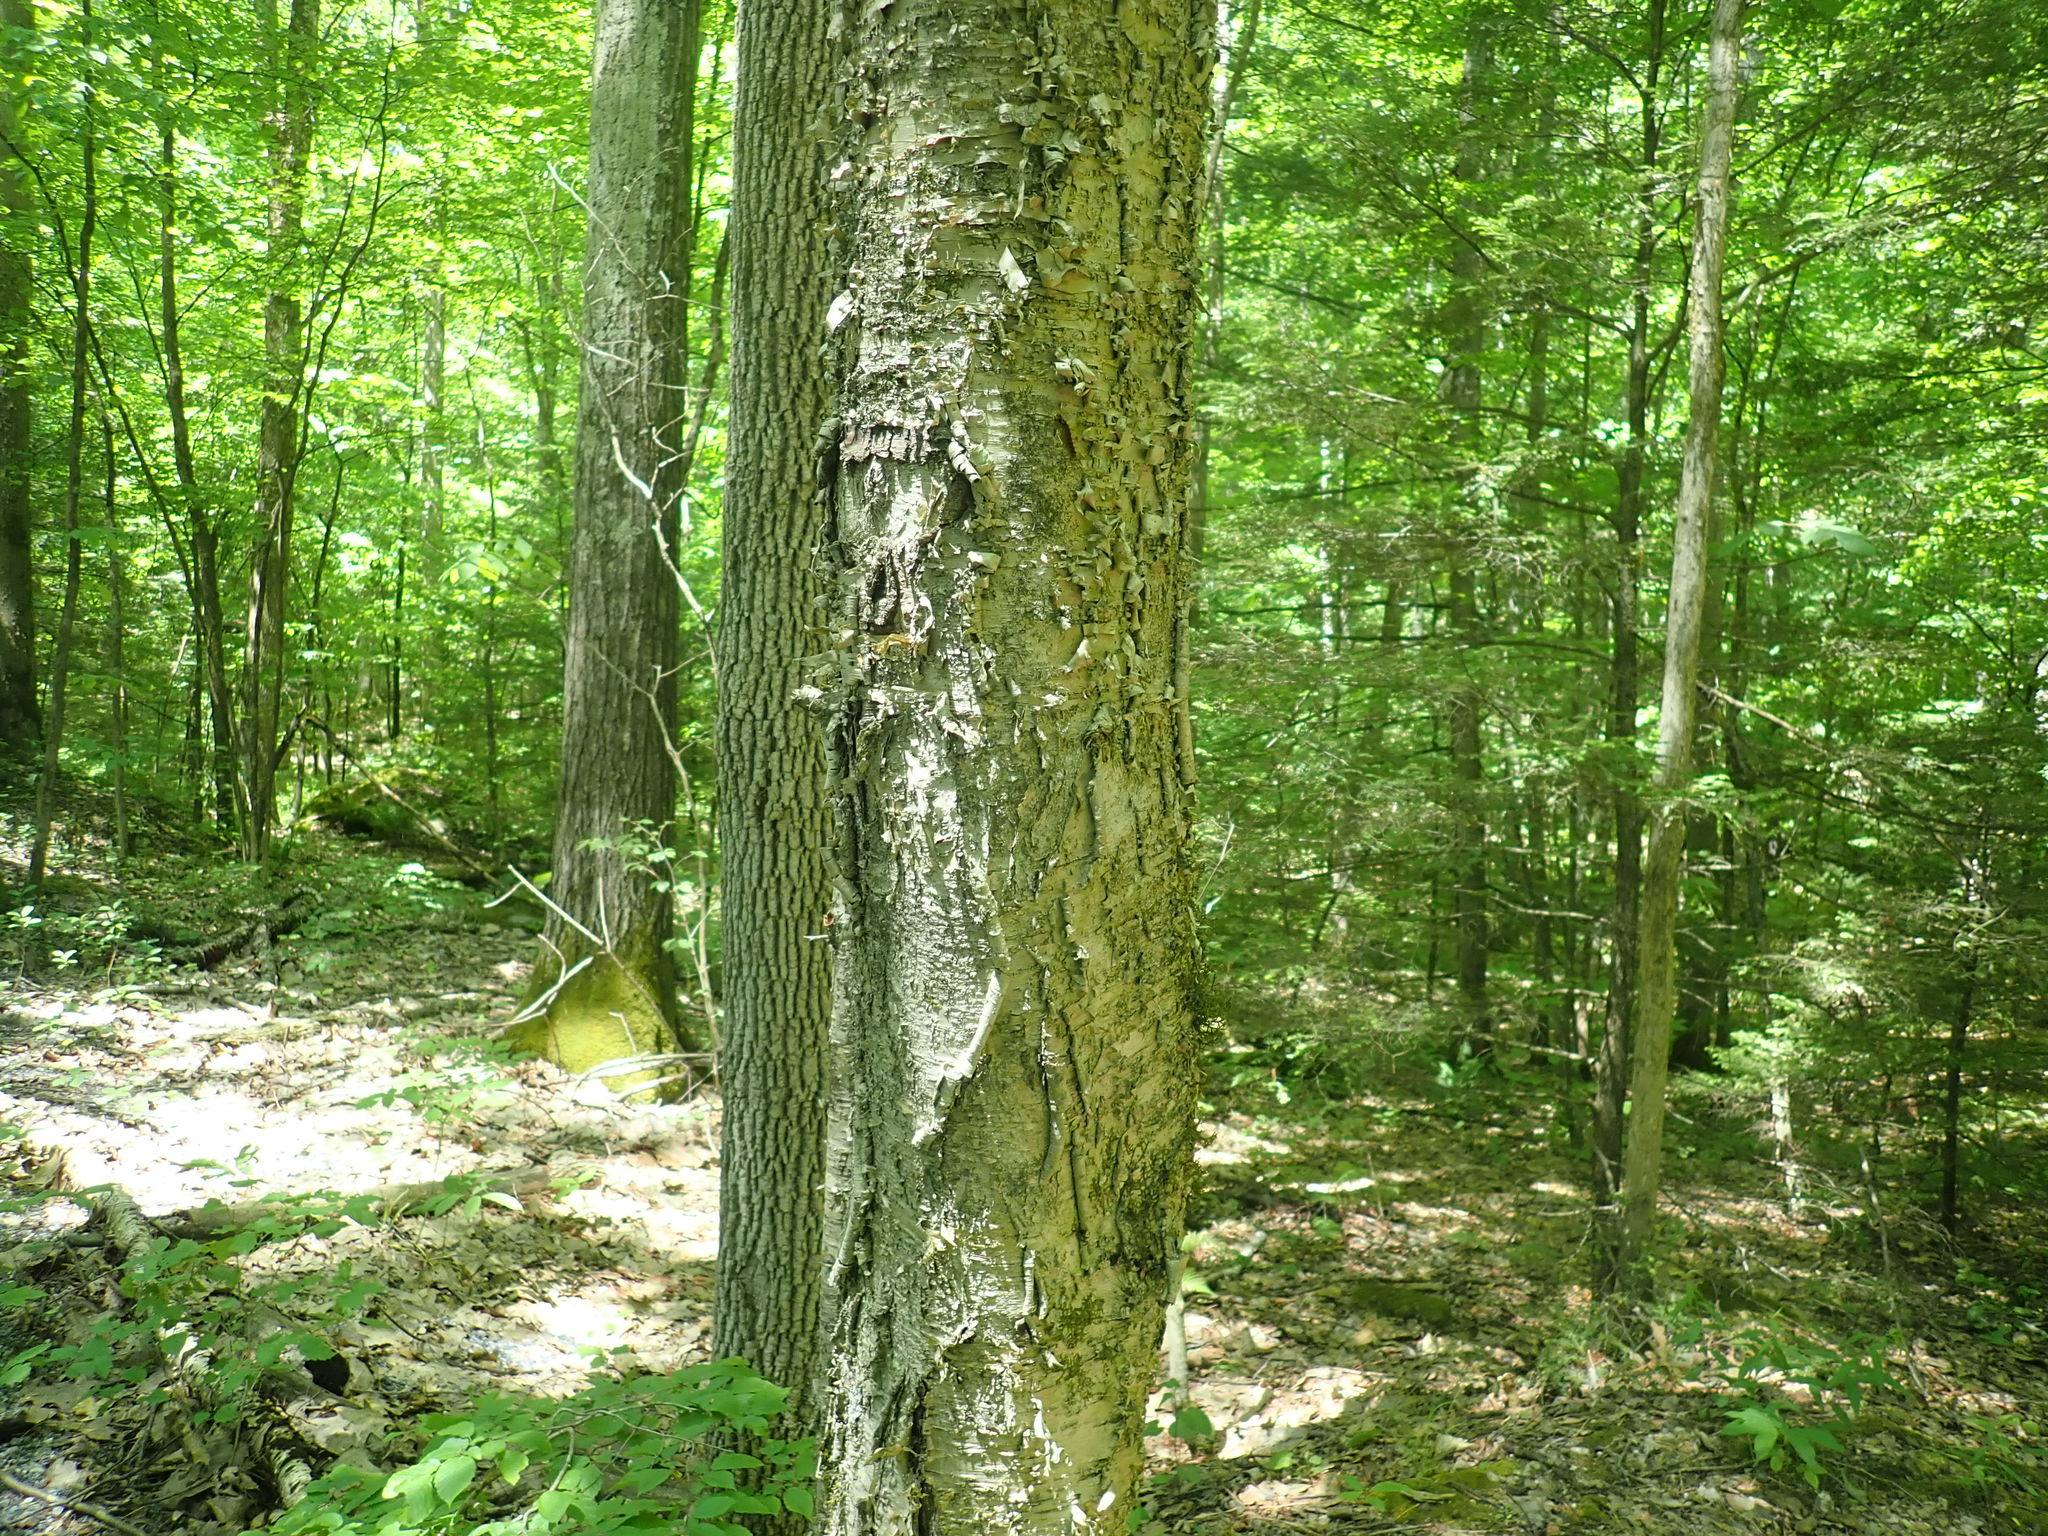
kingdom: Plantae
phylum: Tracheophyta
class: Magnoliopsida
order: Fagales
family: Betulaceae
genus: Betula
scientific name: Betula alleghaniensis
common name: Yellow birch
